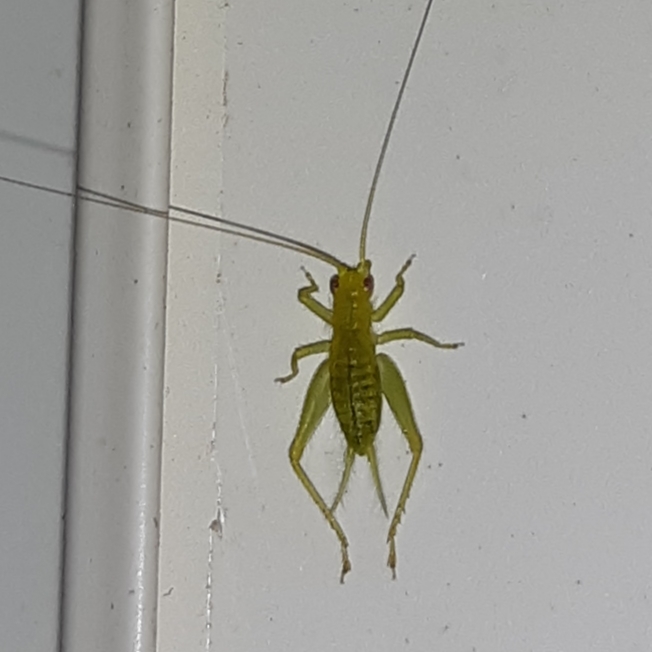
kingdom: Animalia
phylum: Arthropoda
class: Insecta
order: Orthoptera
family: Trigonidiidae
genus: Cyrtoxipha
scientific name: Cyrtoxipha columbiana
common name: Columbian trig
